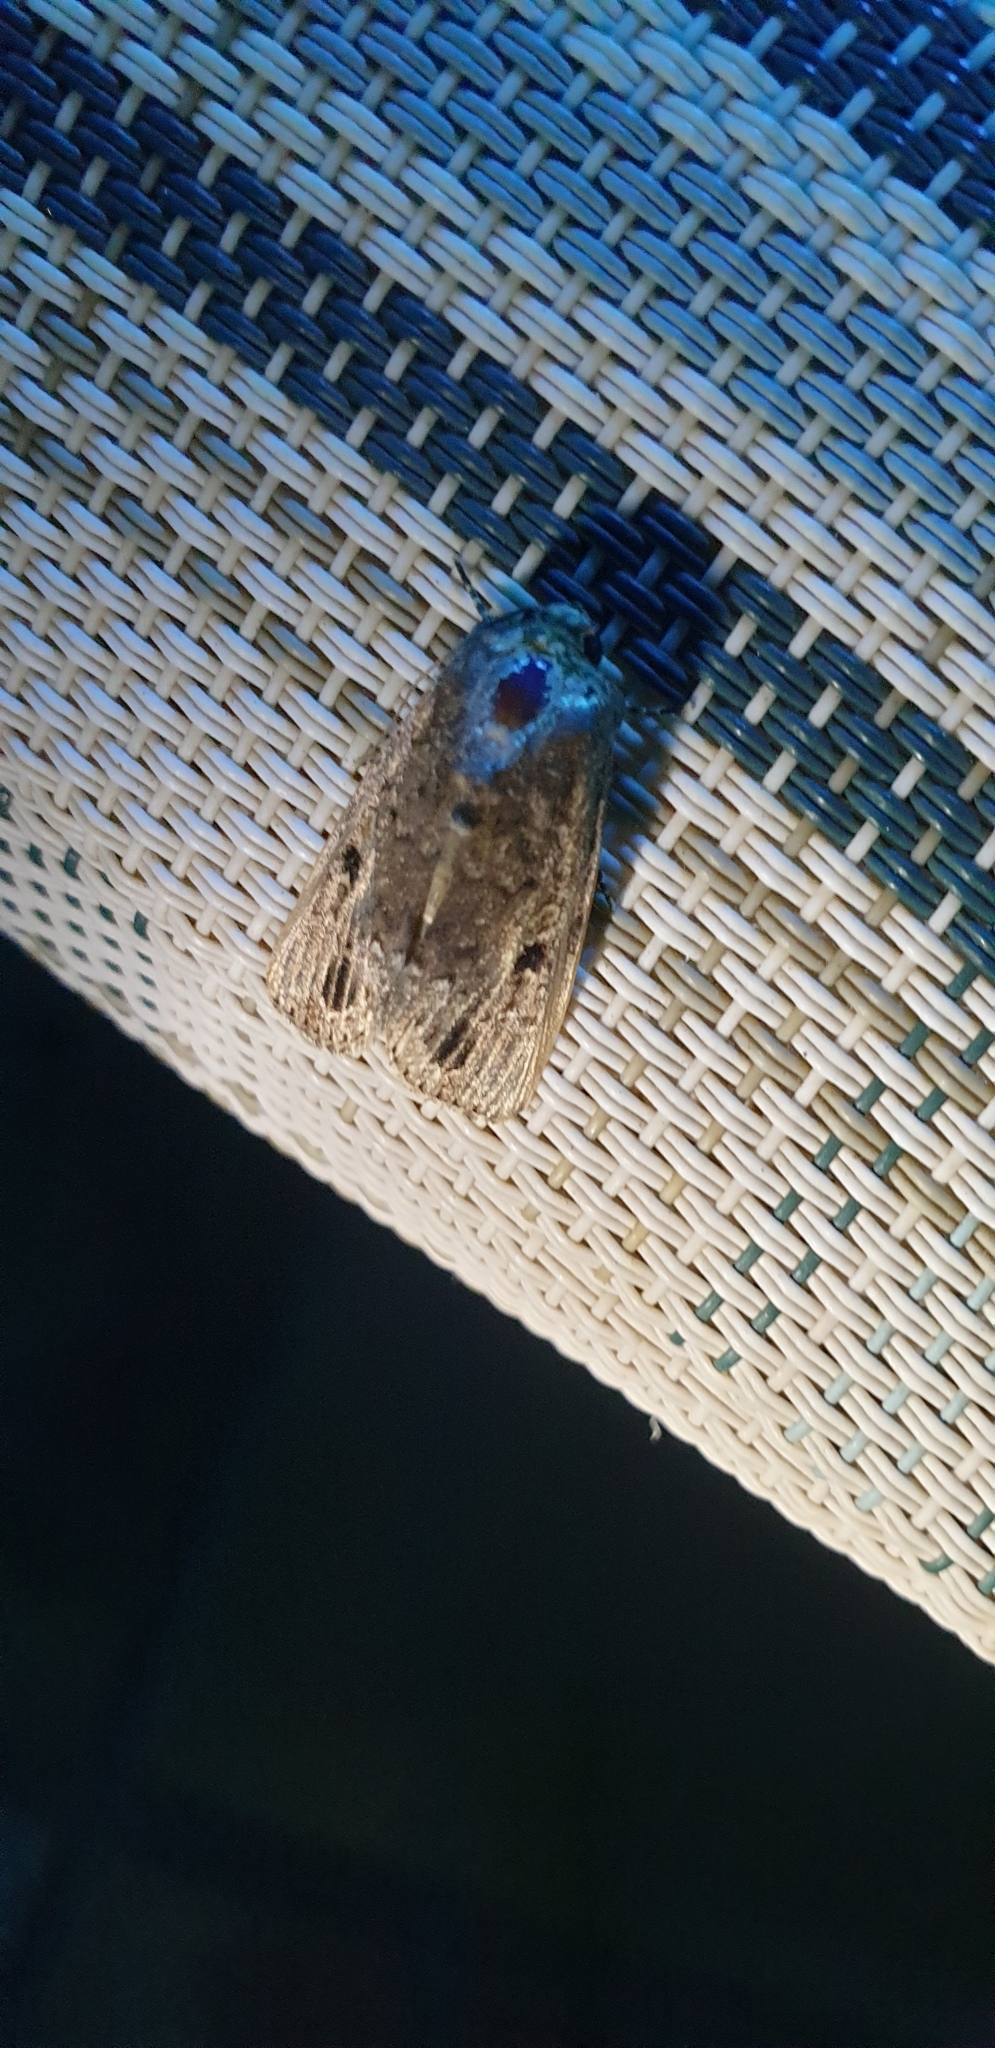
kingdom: Animalia
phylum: Arthropoda
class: Insecta
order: Lepidoptera
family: Noctuidae
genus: Spodoptera
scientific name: Spodoptera mauritia
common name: Lawn armyworm
